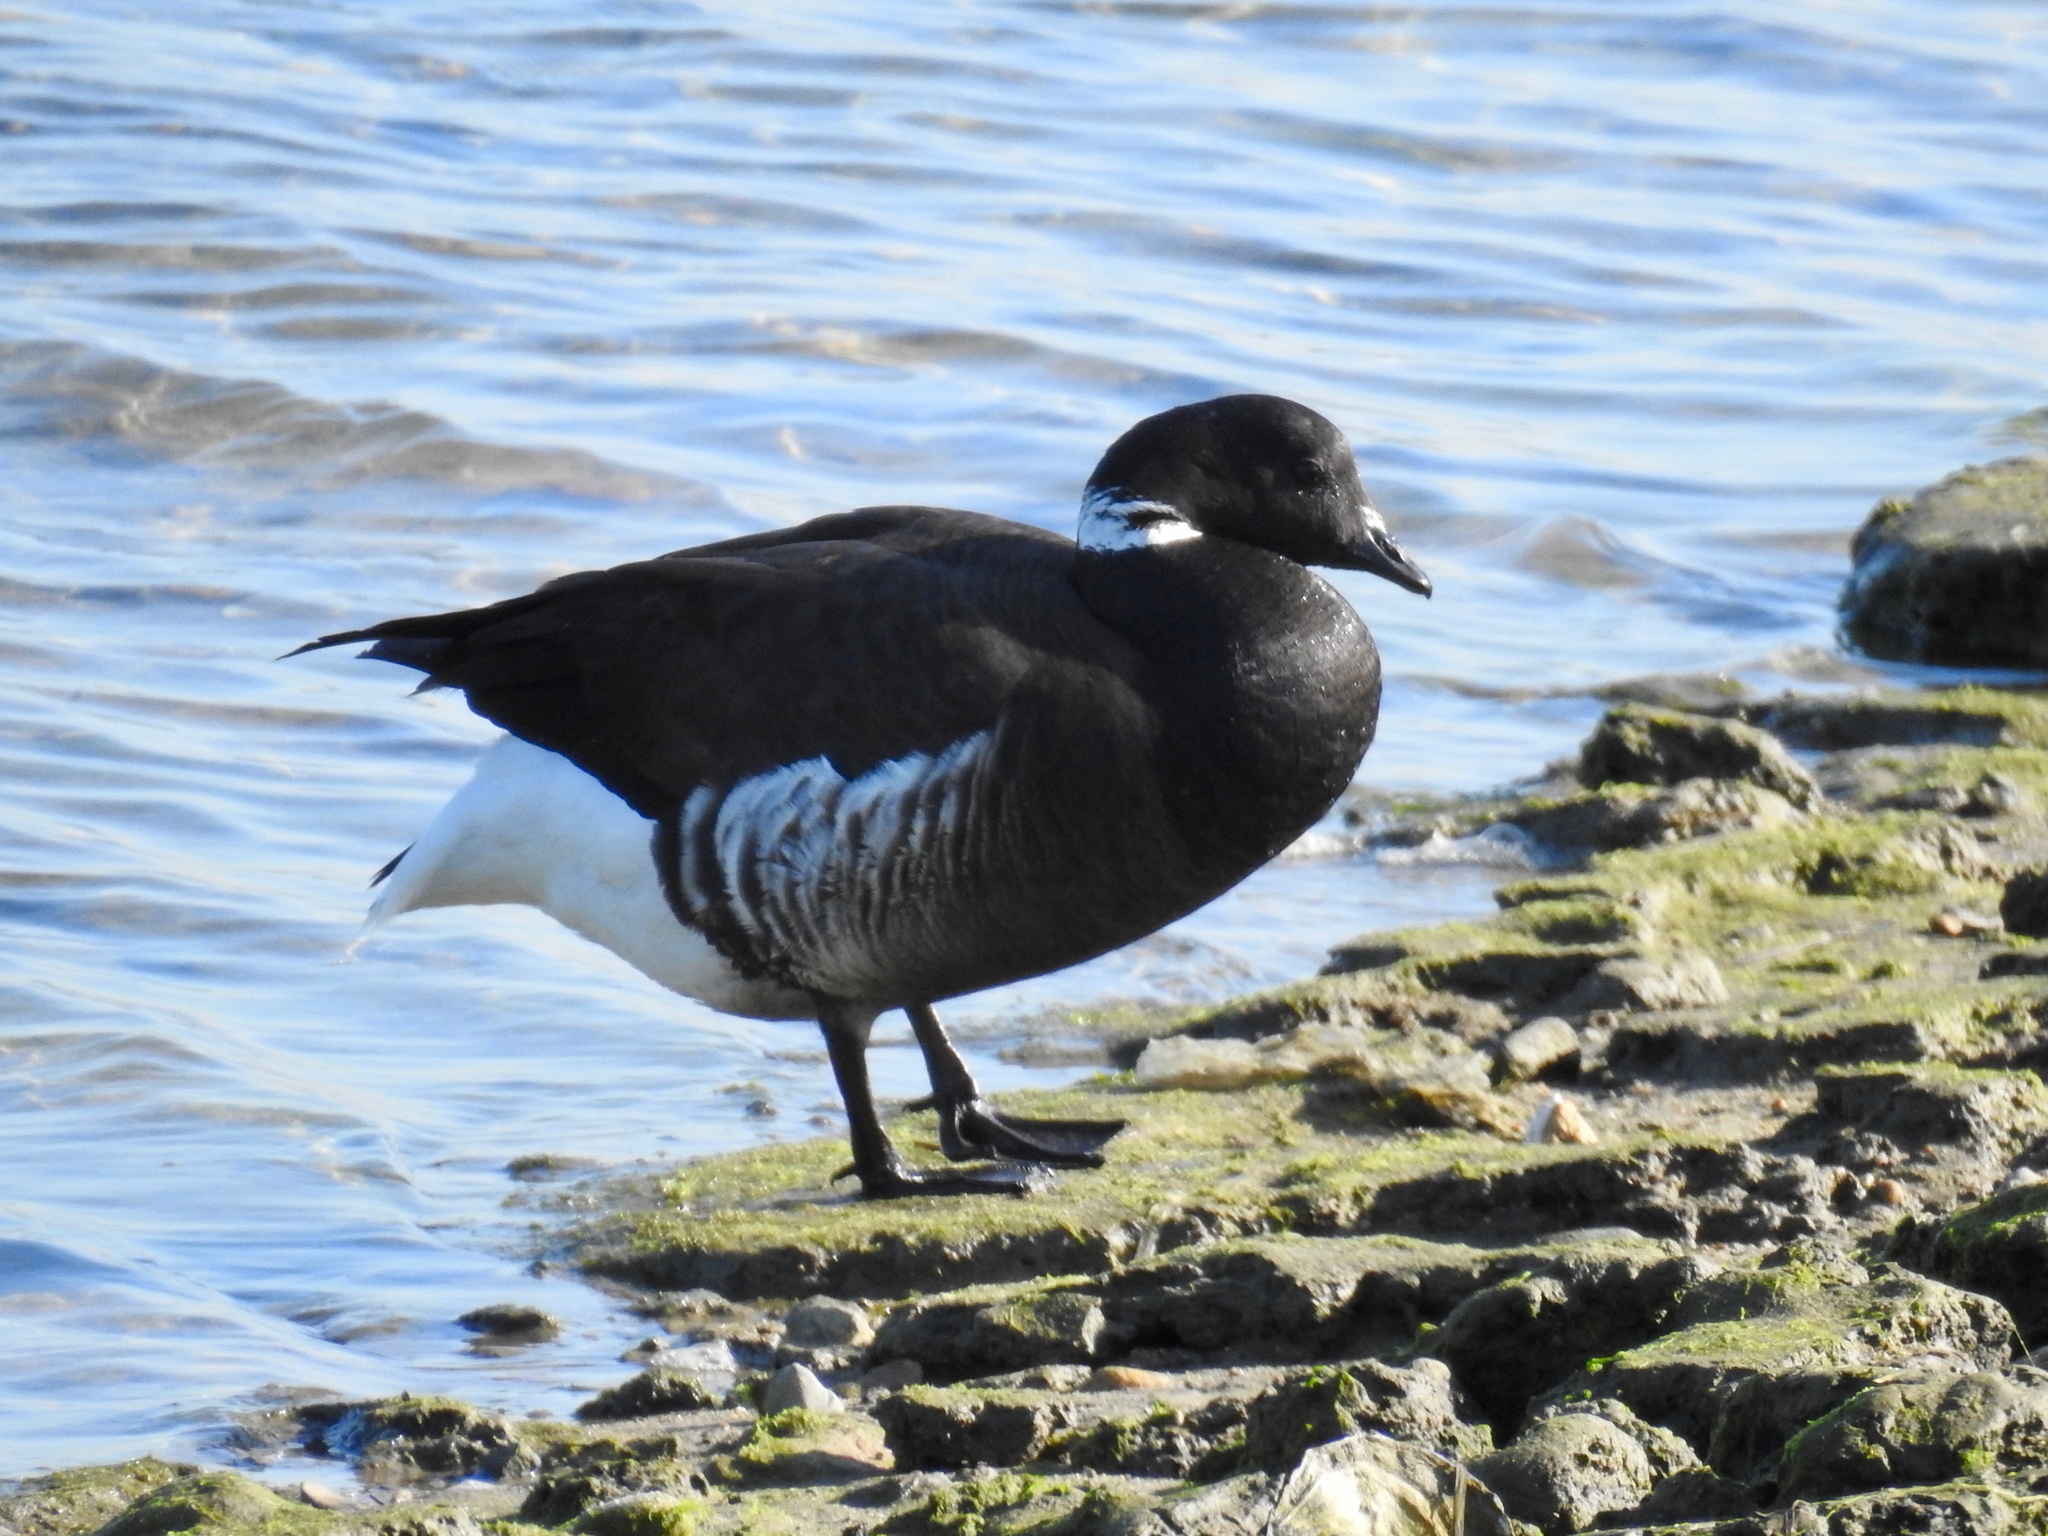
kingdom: Animalia
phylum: Chordata
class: Aves
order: Anseriformes
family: Anatidae
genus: Branta
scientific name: Branta bernicla
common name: Brant goose
